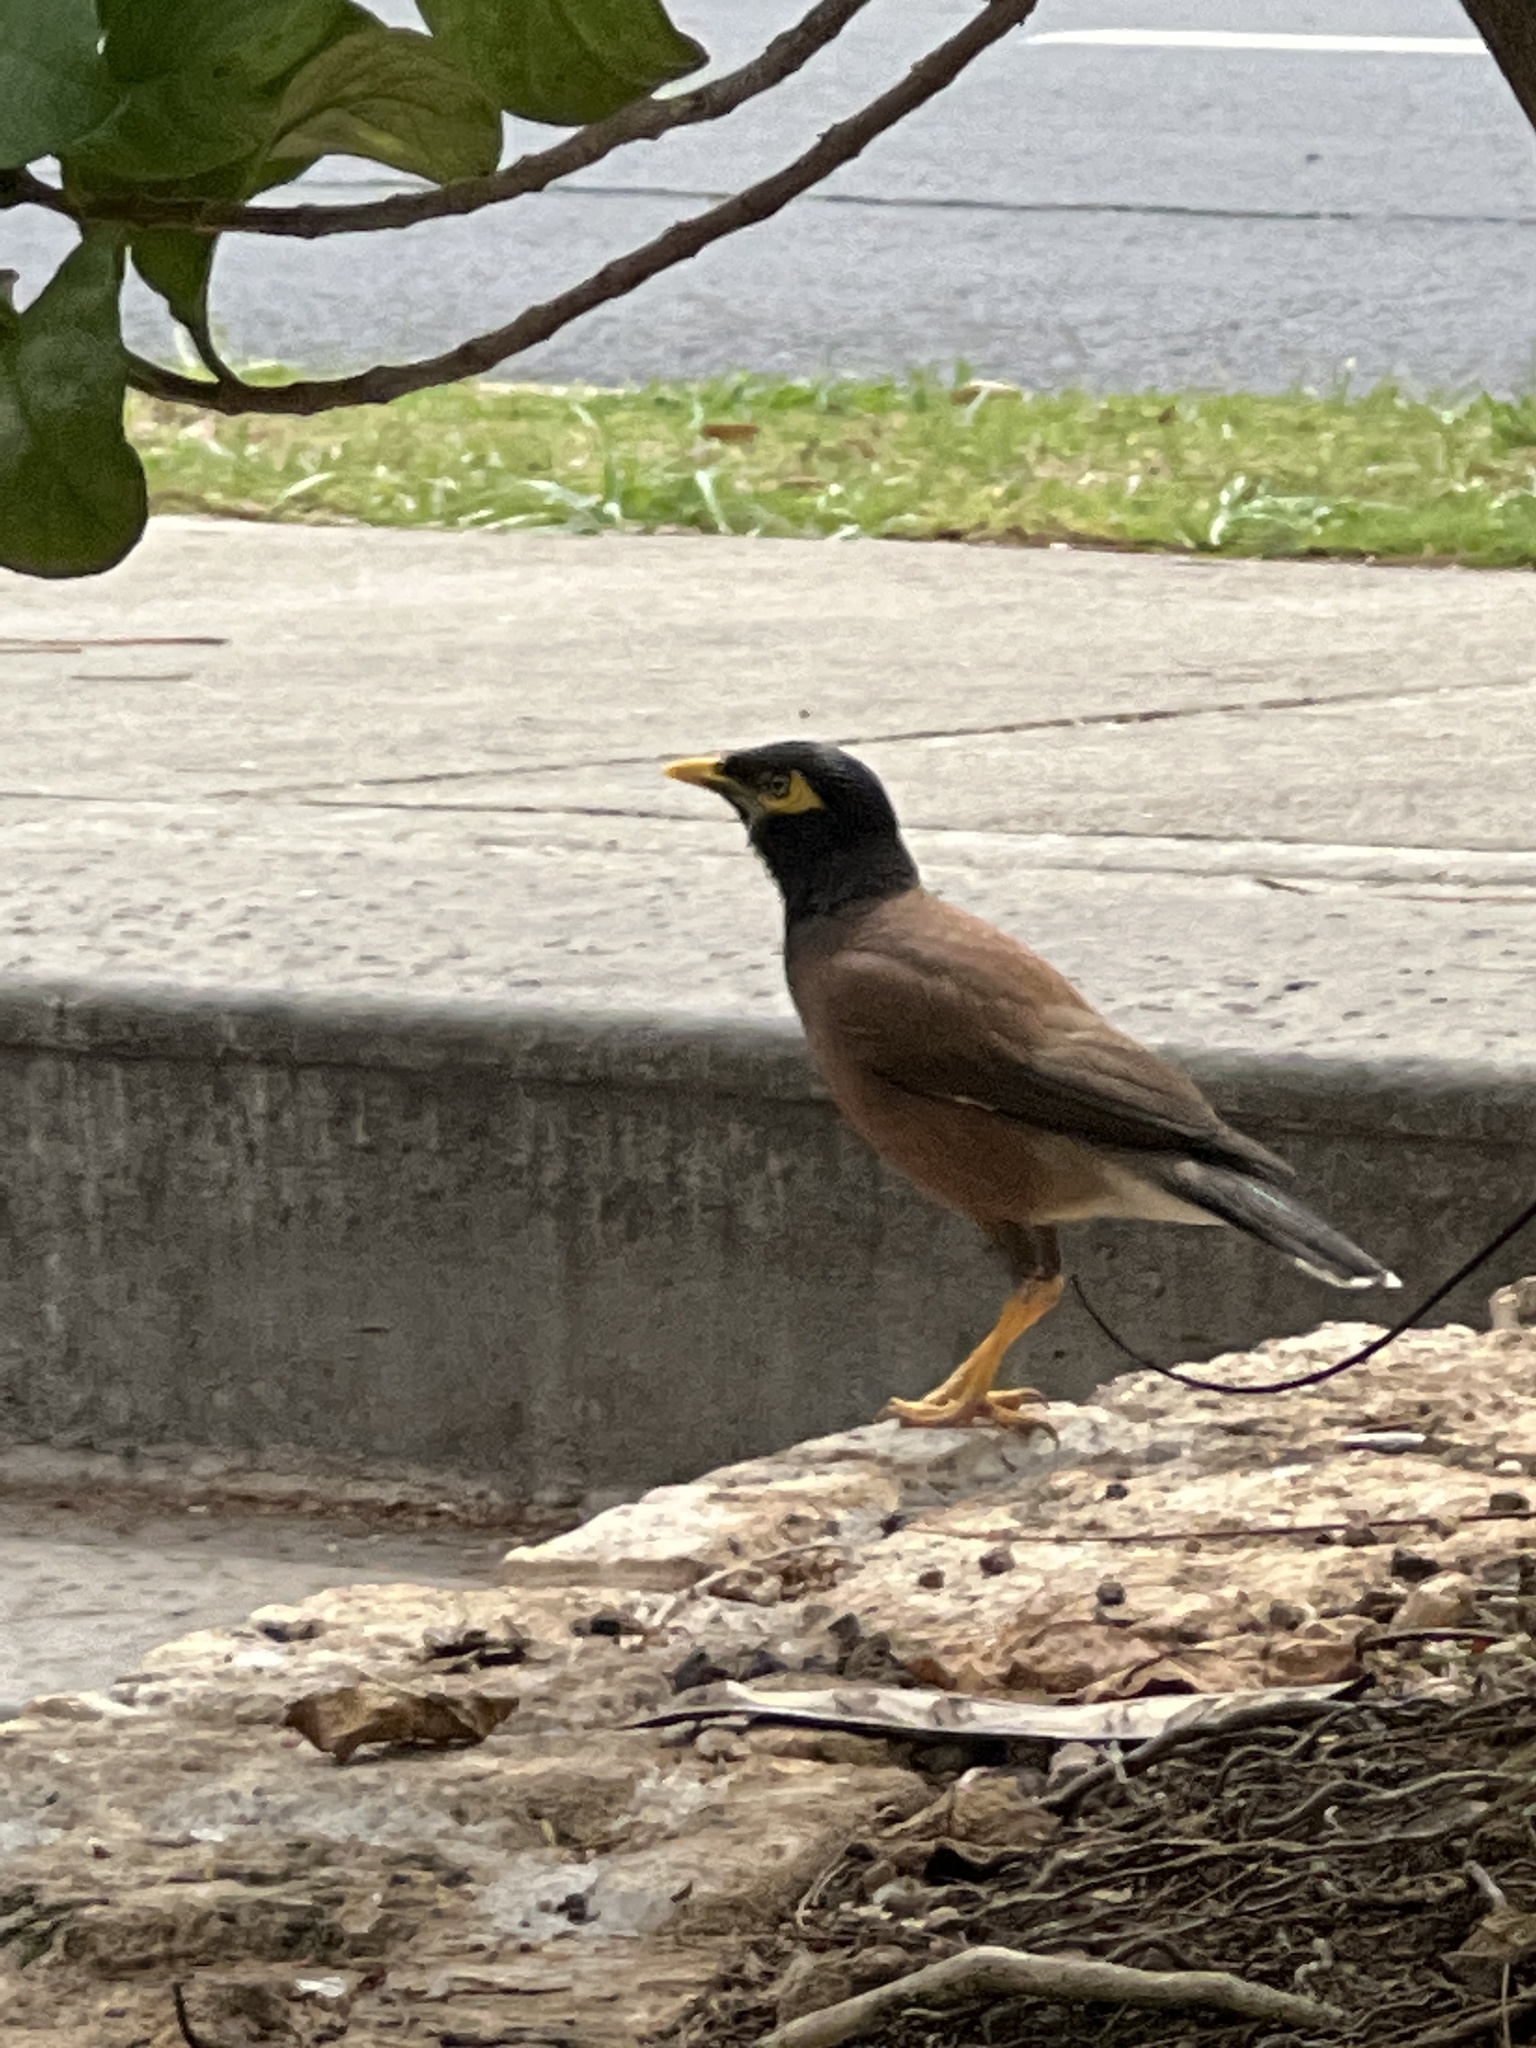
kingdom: Animalia
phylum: Chordata
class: Aves
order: Passeriformes
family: Sturnidae
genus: Acridotheres
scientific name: Acridotheres tristis
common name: Common myna
